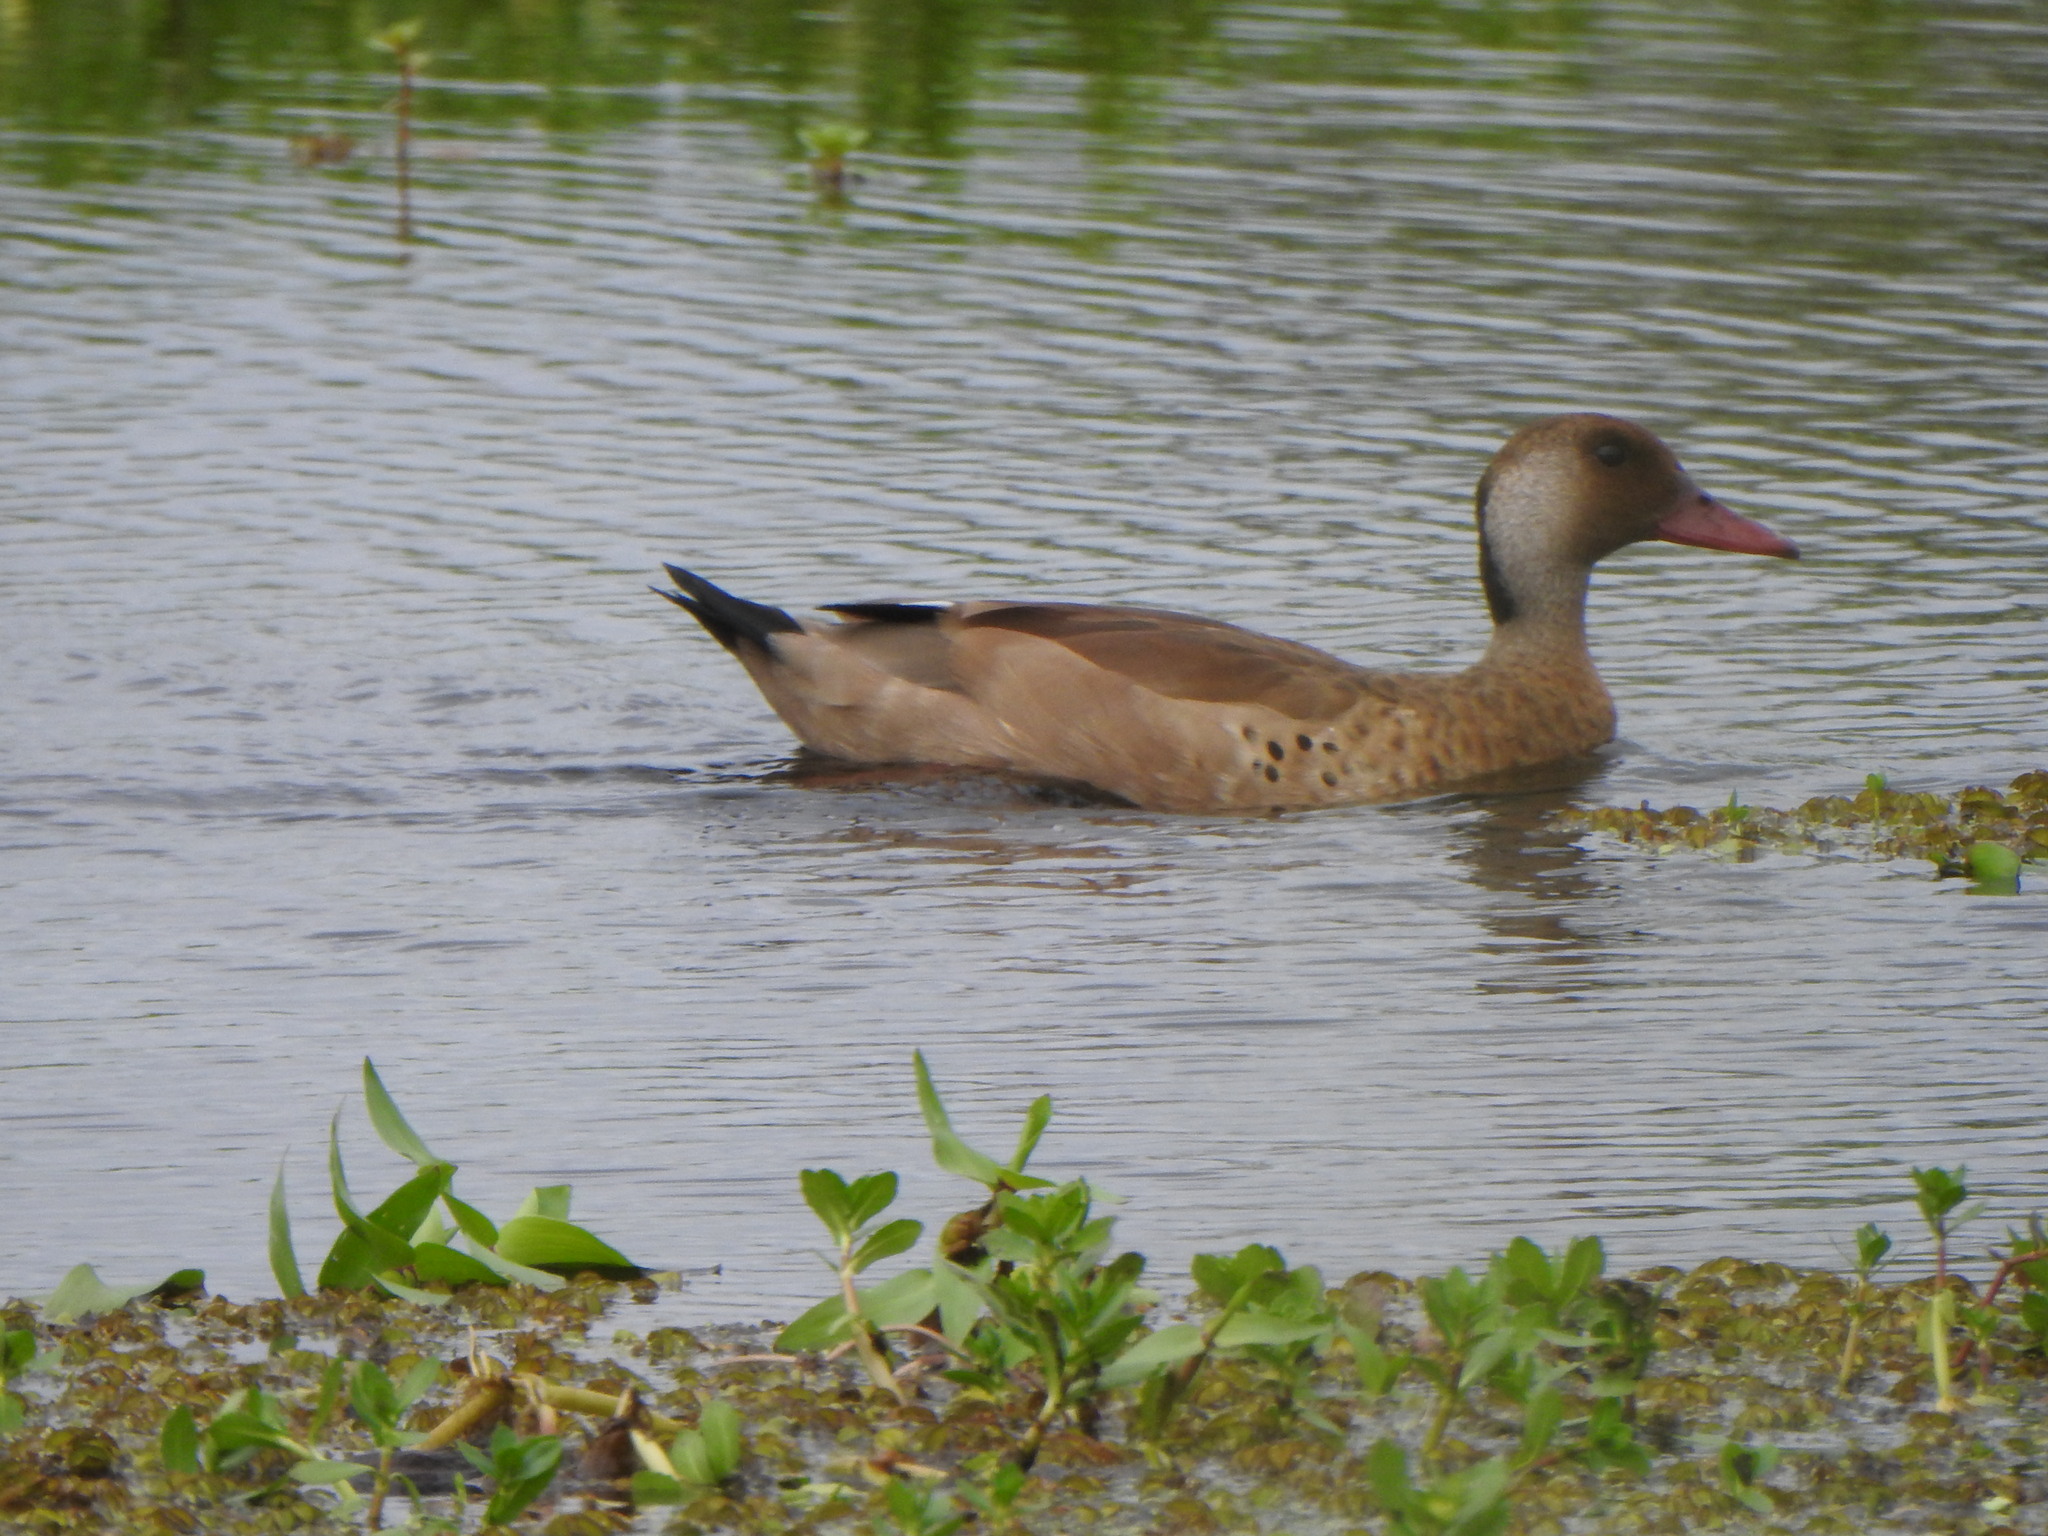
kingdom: Animalia
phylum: Chordata
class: Aves
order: Anseriformes
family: Anatidae
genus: Amazonetta
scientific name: Amazonetta brasiliensis
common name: Brazilian teal
